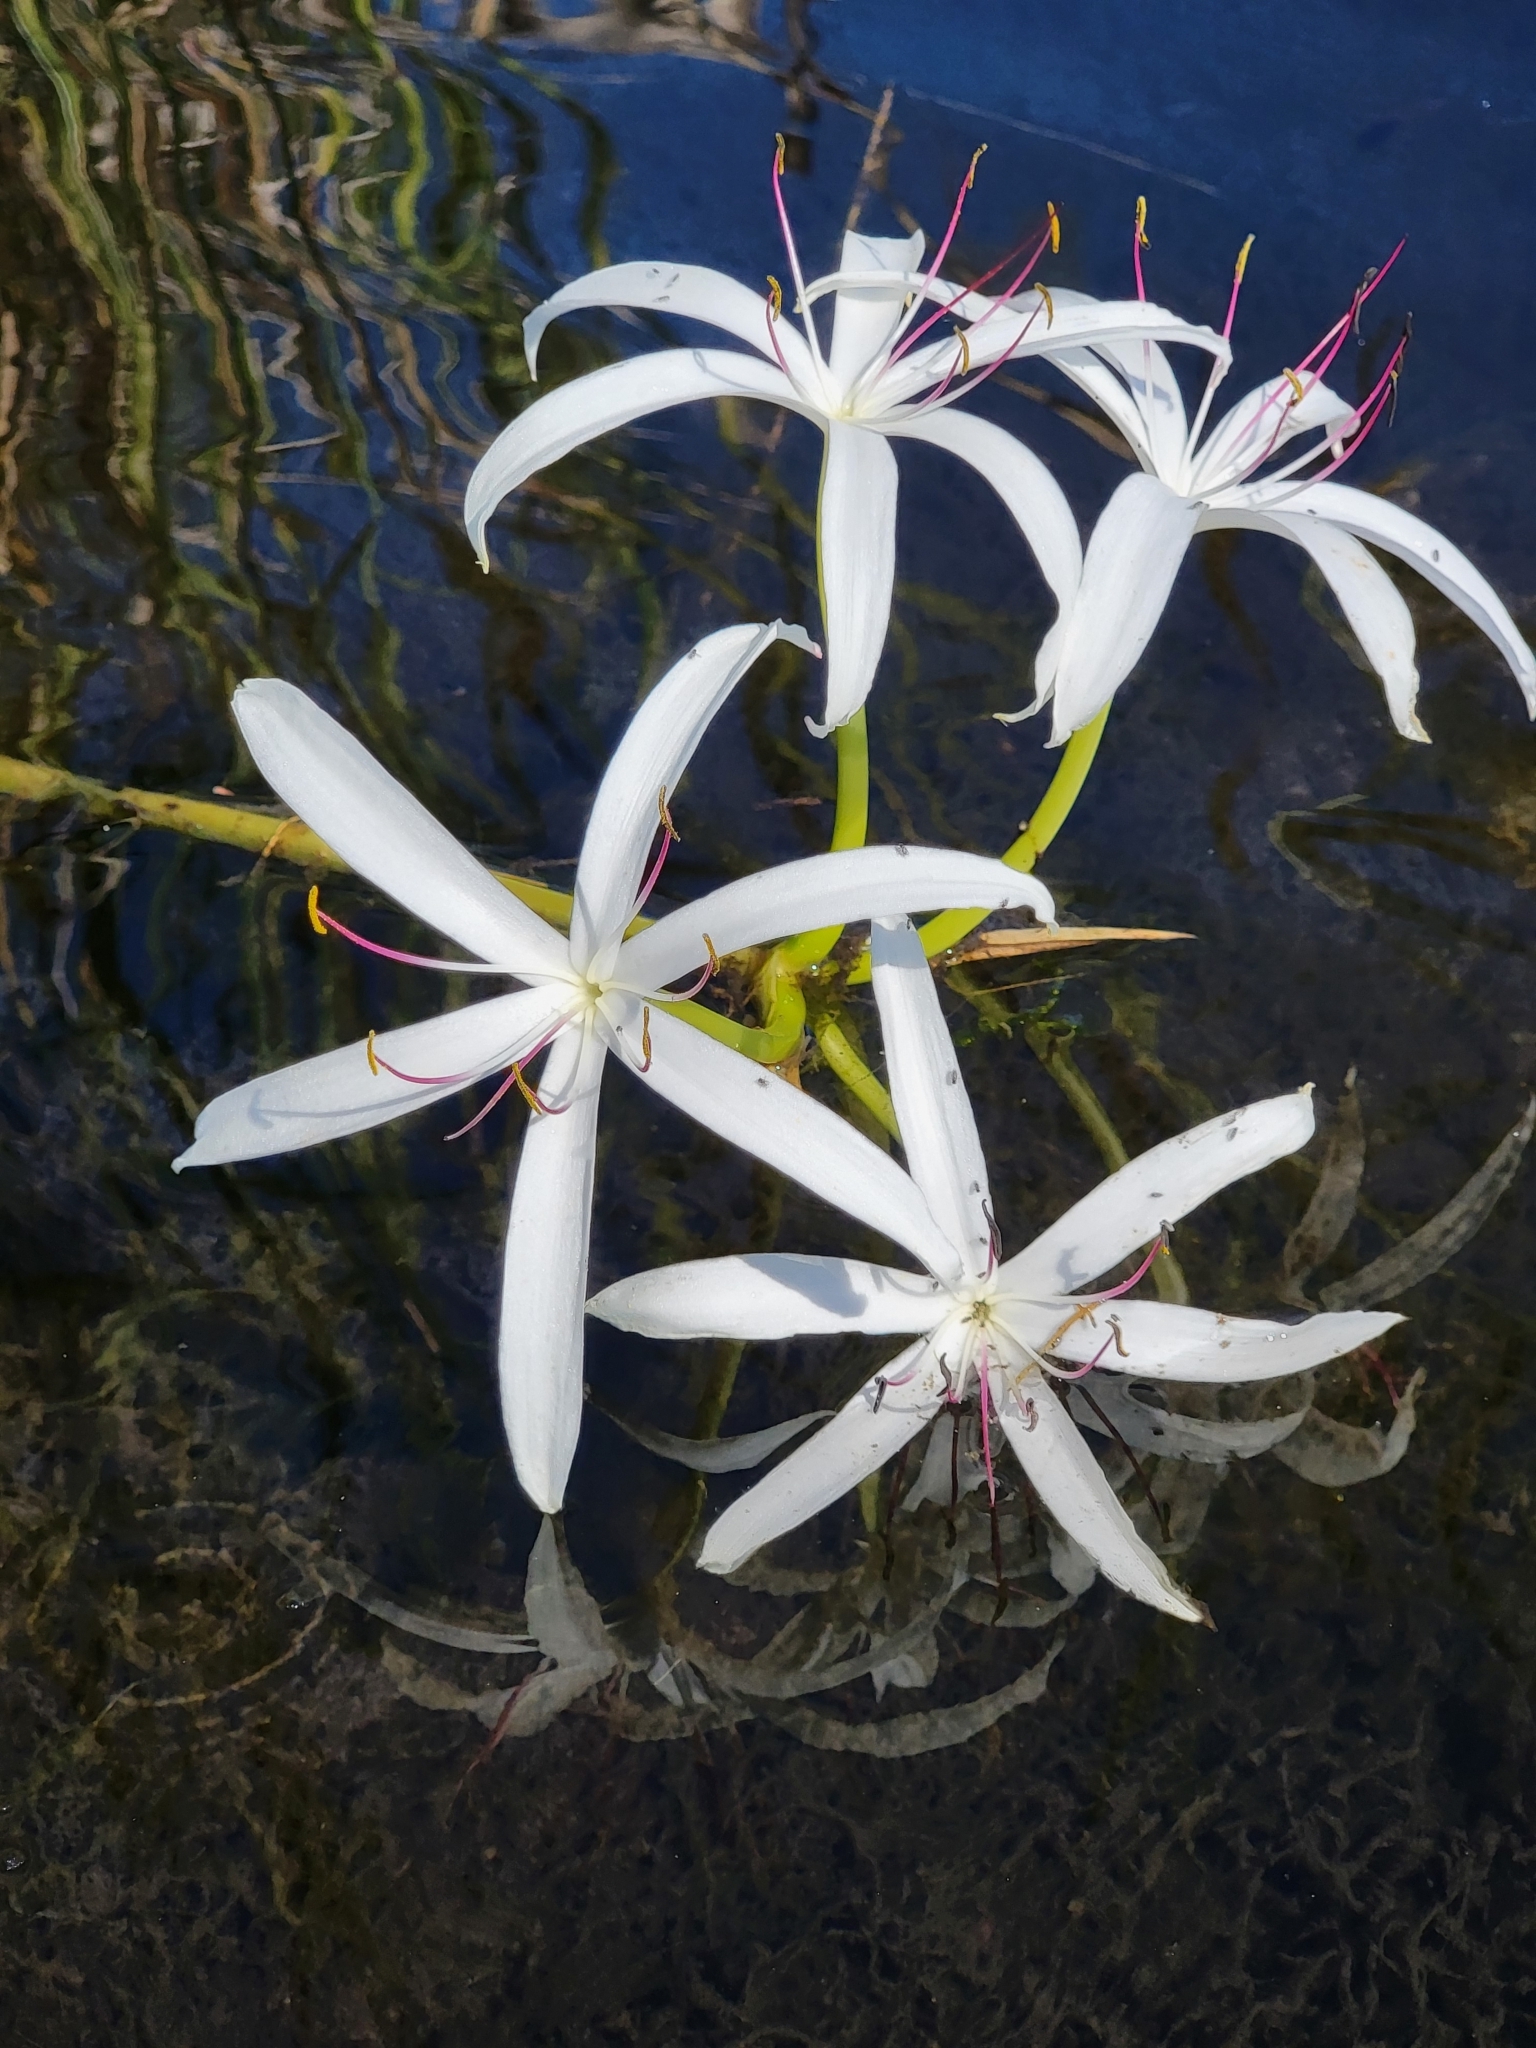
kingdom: Plantae
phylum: Tracheophyta
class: Liliopsida
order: Asparagales
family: Amaryllidaceae
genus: Crinum
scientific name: Crinum americanum
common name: Florida swamp-lily
